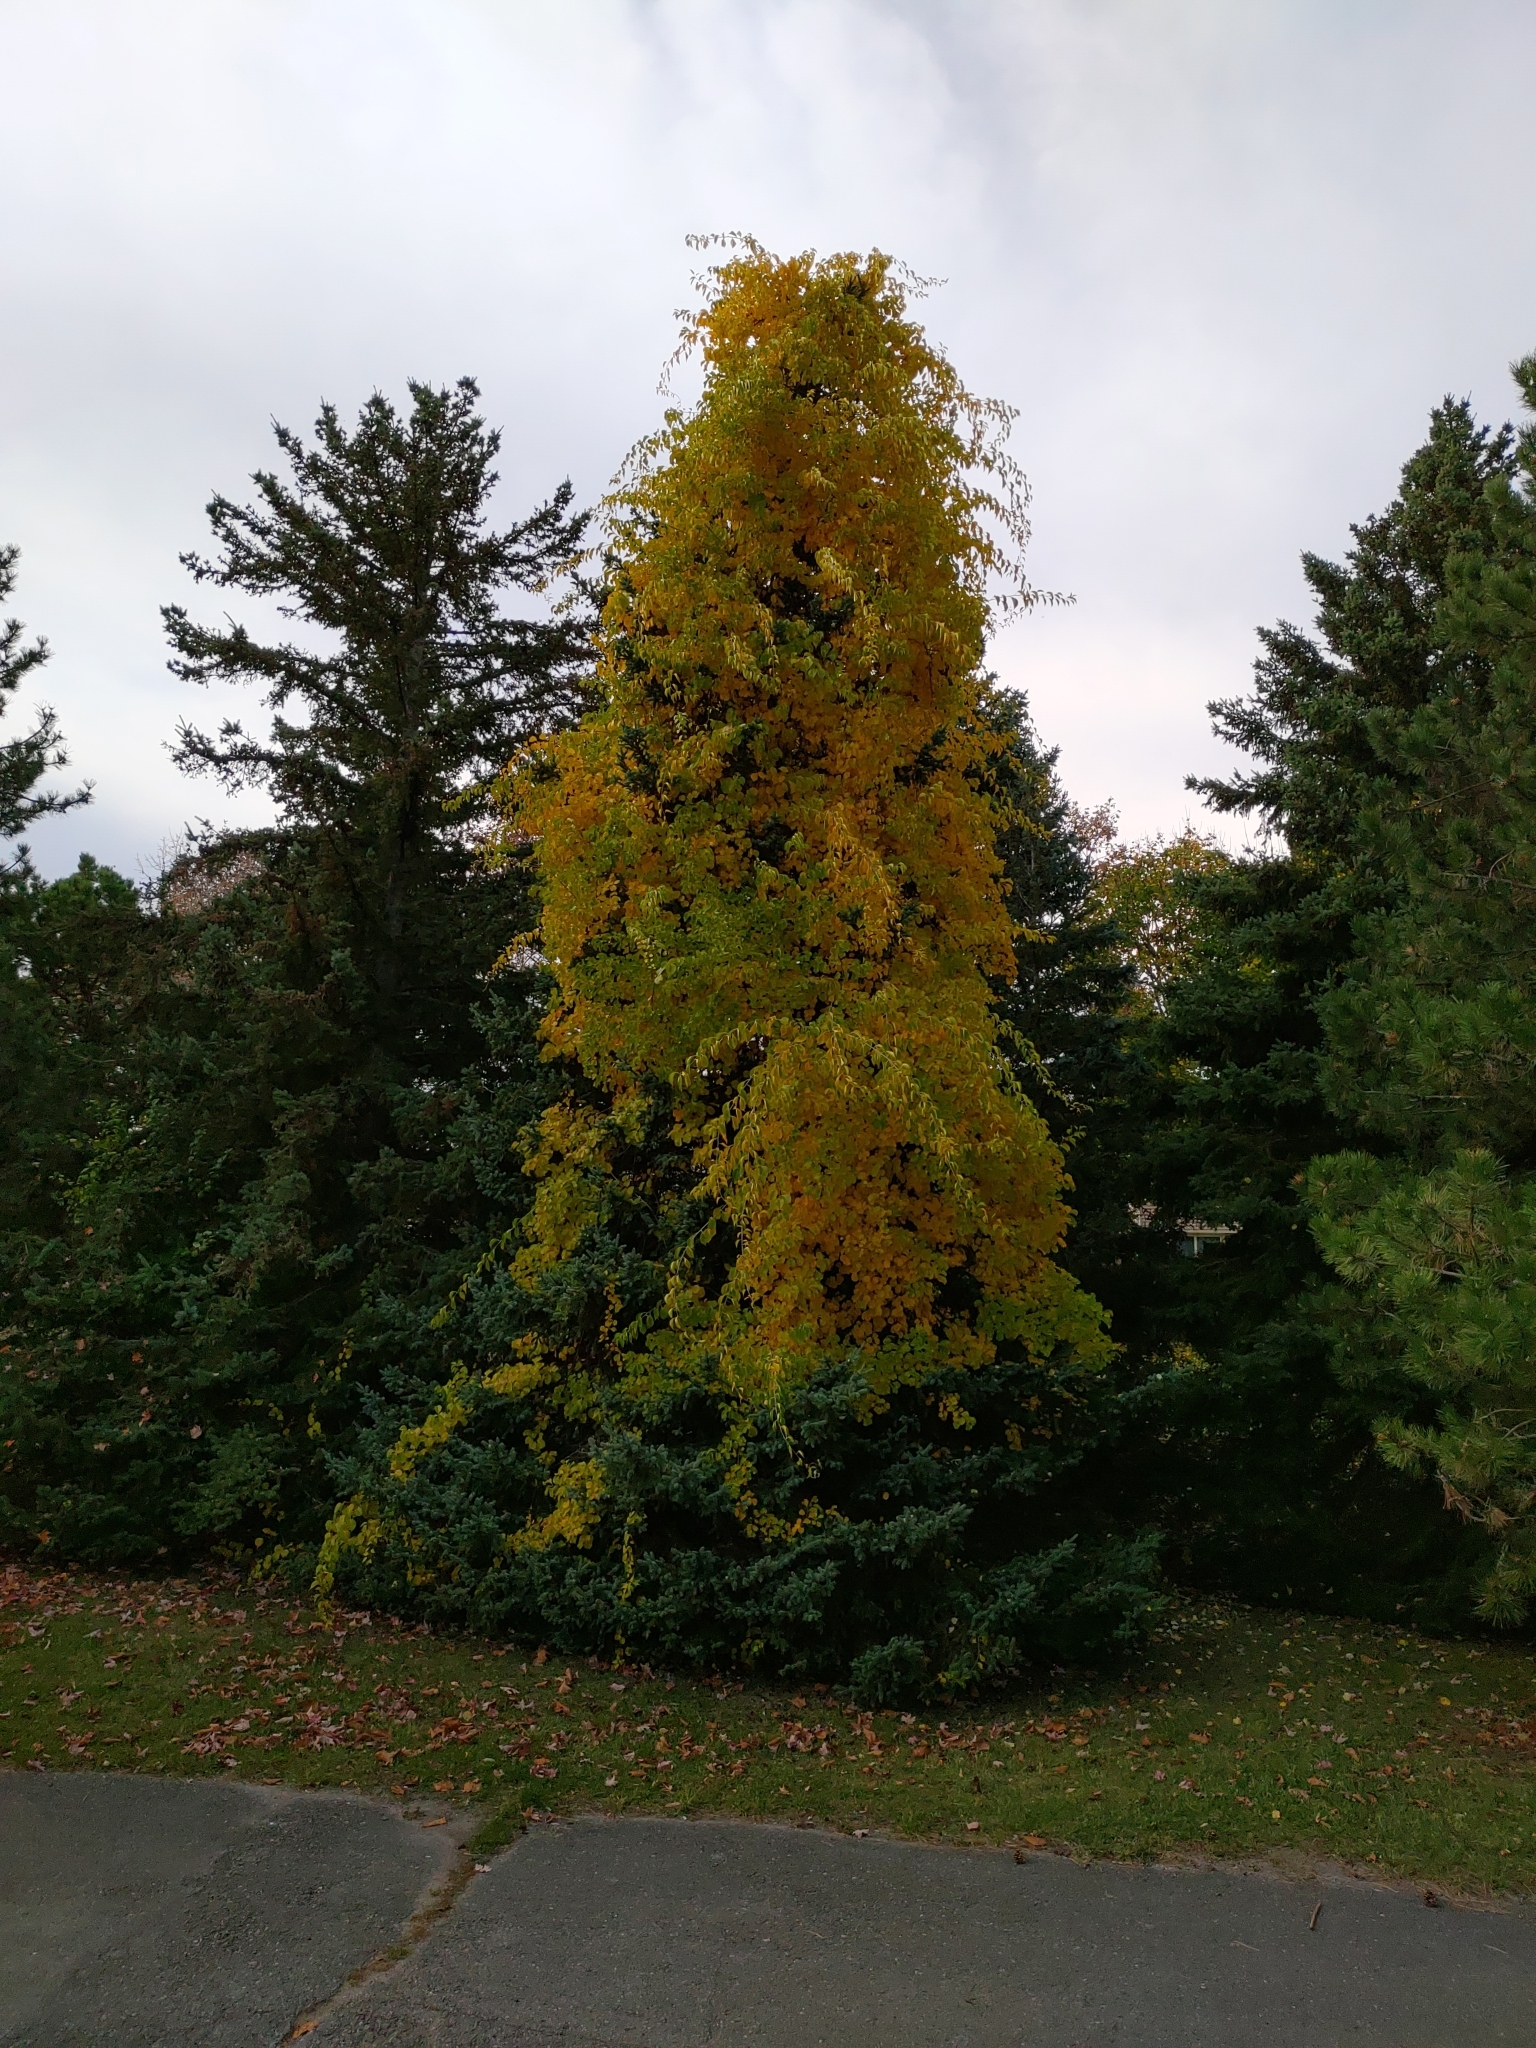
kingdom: Plantae
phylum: Tracheophyta
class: Magnoliopsida
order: Celastrales
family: Celastraceae
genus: Celastrus
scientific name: Celastrus orbiculatus
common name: Oriental bittersweet
